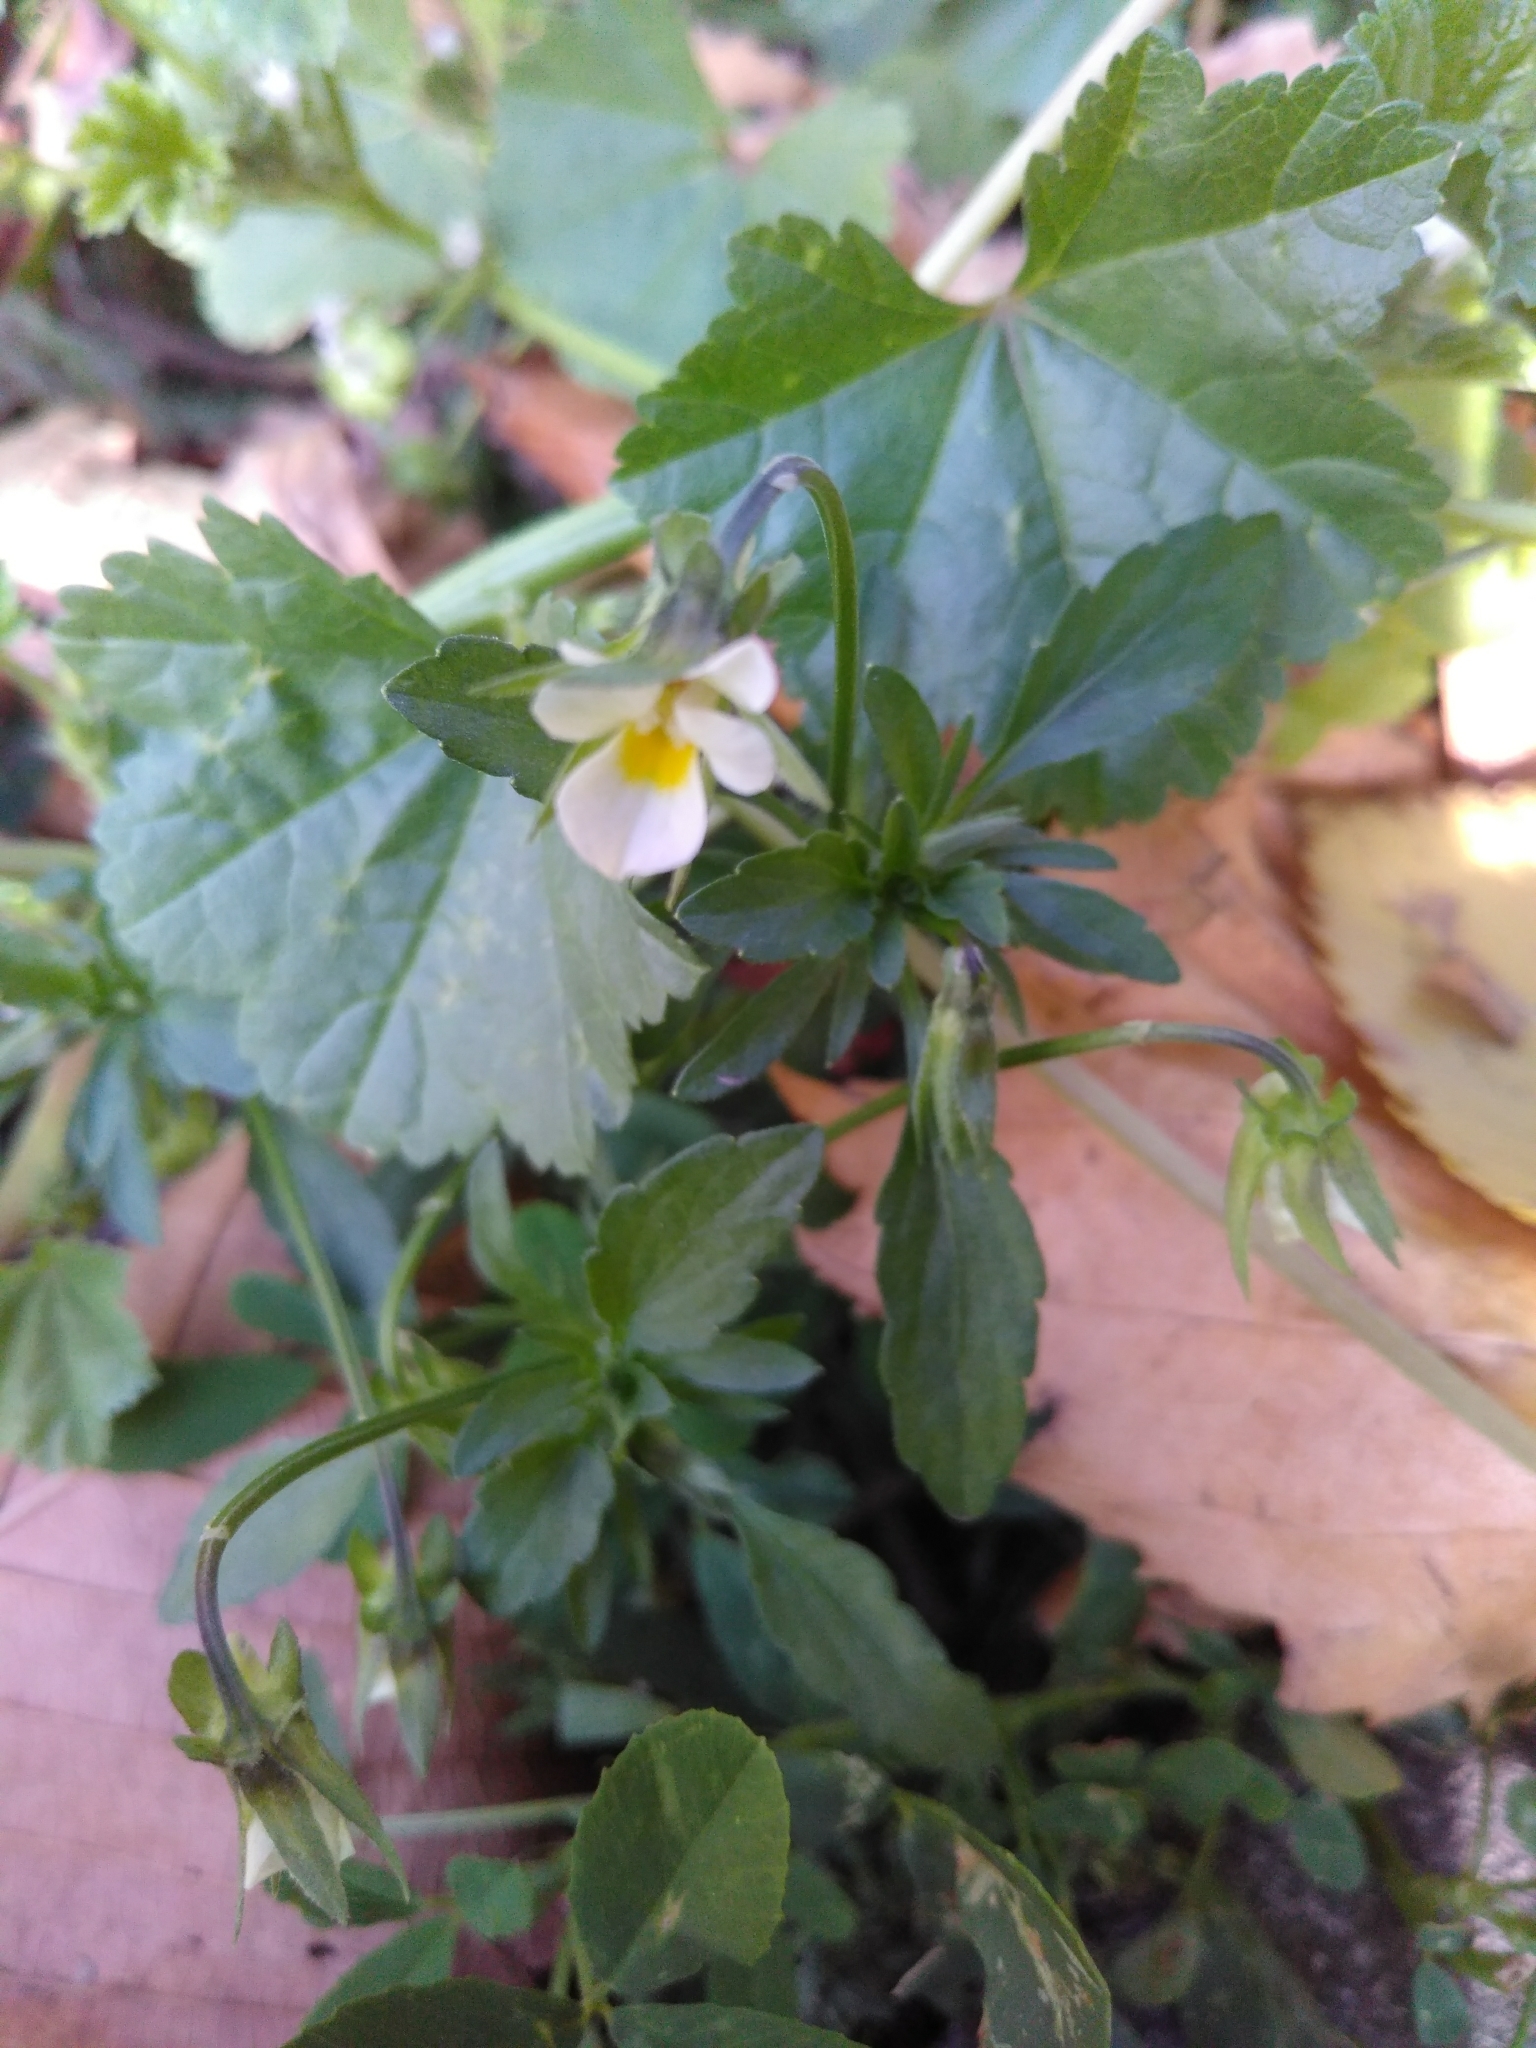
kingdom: Plantae
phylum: Tracheophyta
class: Magnoliopsida
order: Malpighiales
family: Violaceae
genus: Viola
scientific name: Viola arvensis
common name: Field pansy
